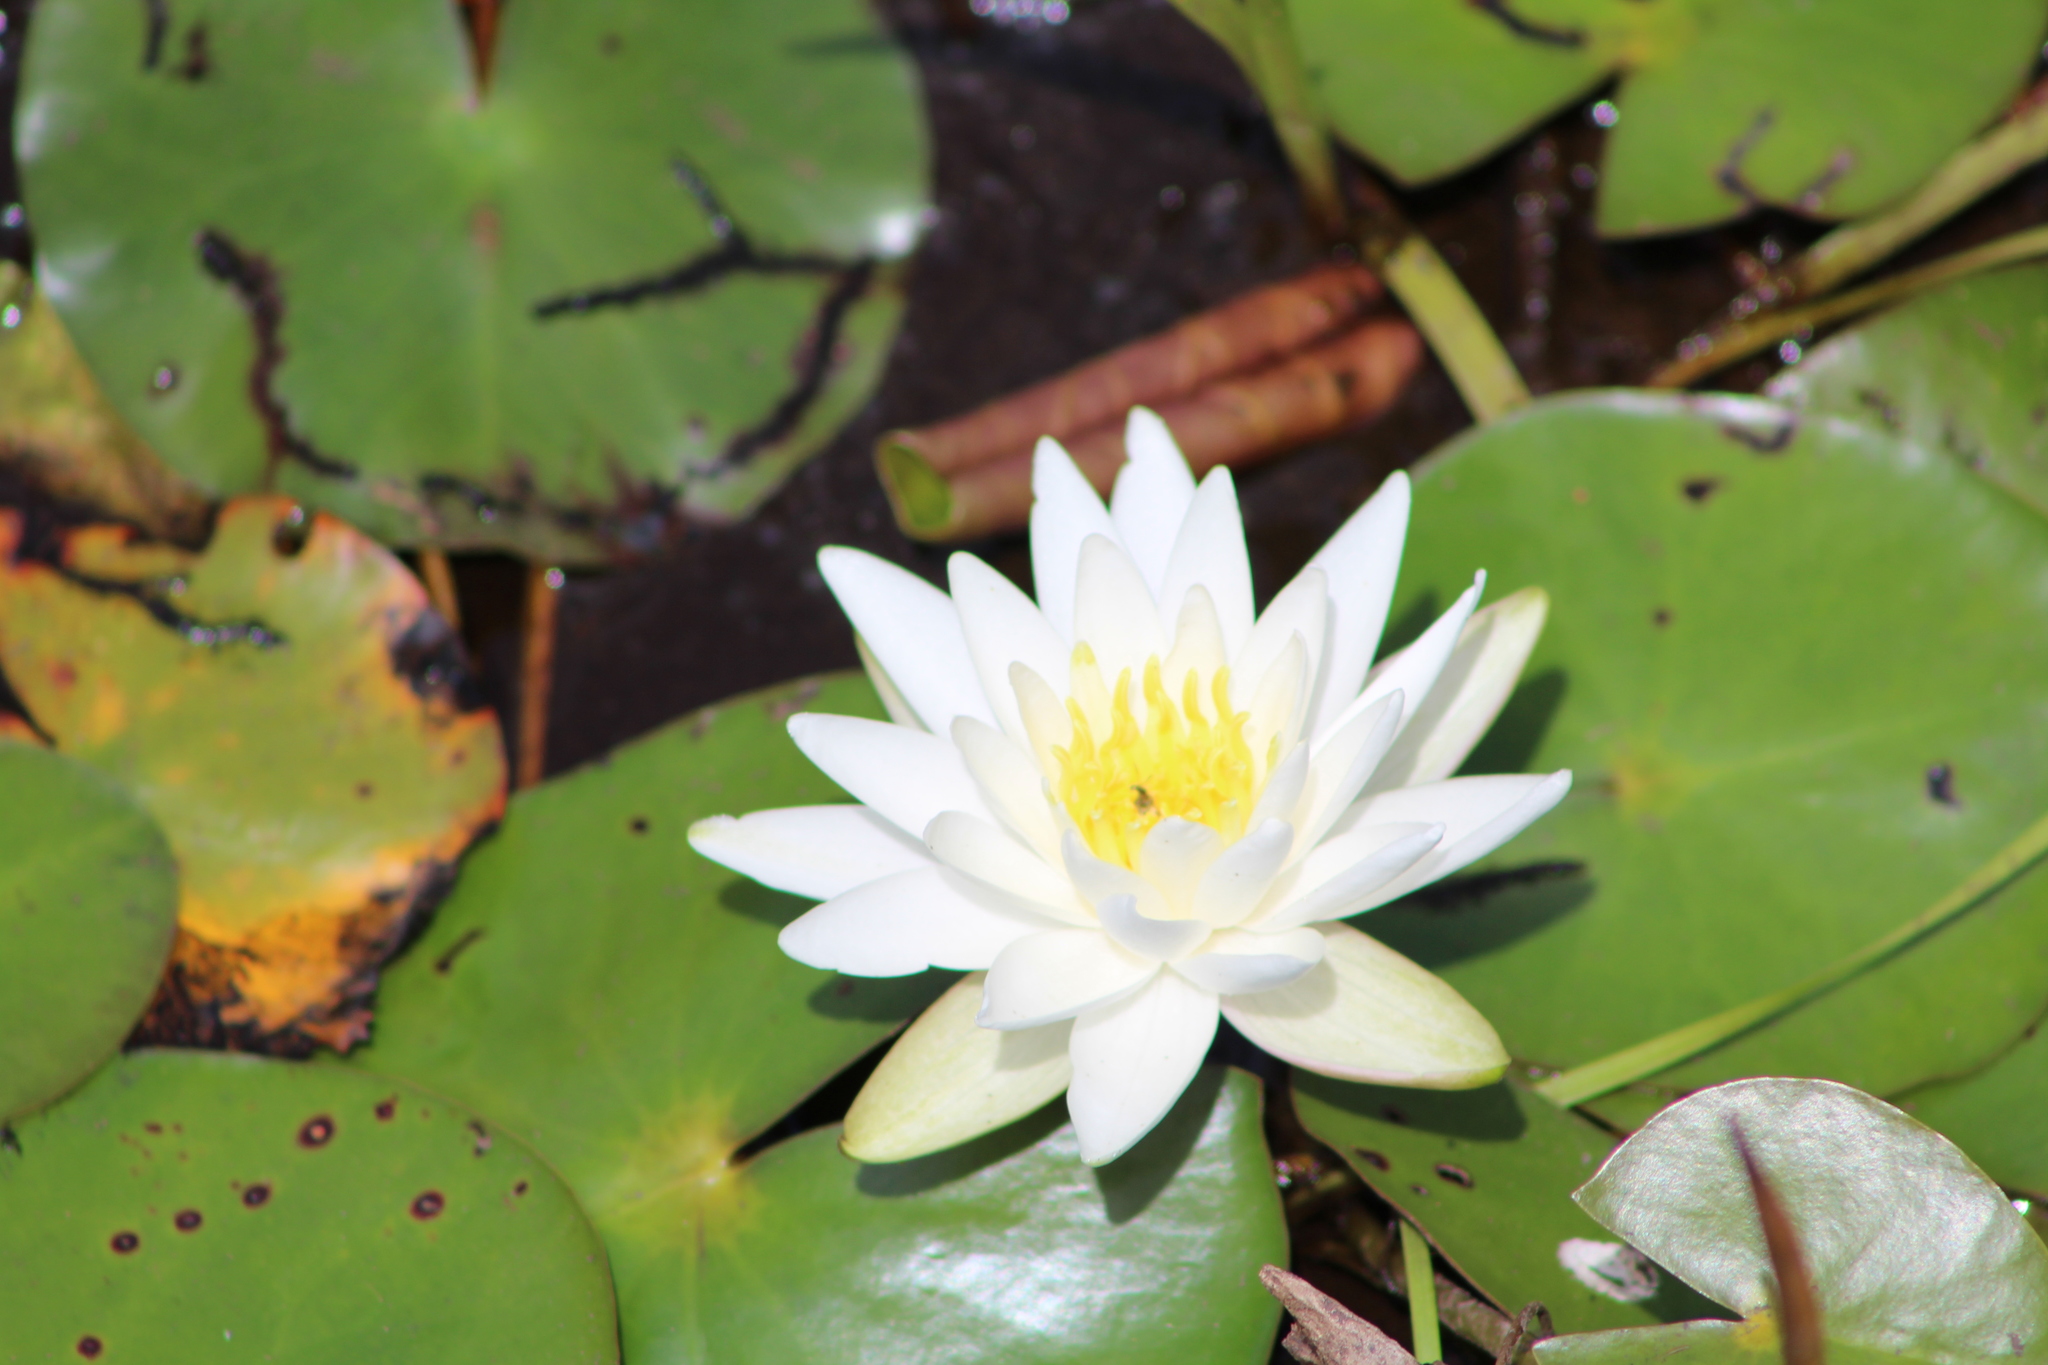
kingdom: Plantae
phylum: Tracheophyta
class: Magnoliopsida
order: Nymphaeales
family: Nymphaeaceae
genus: Nymphaea
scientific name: Nymphaea odorata
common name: Fragrant water-lily
